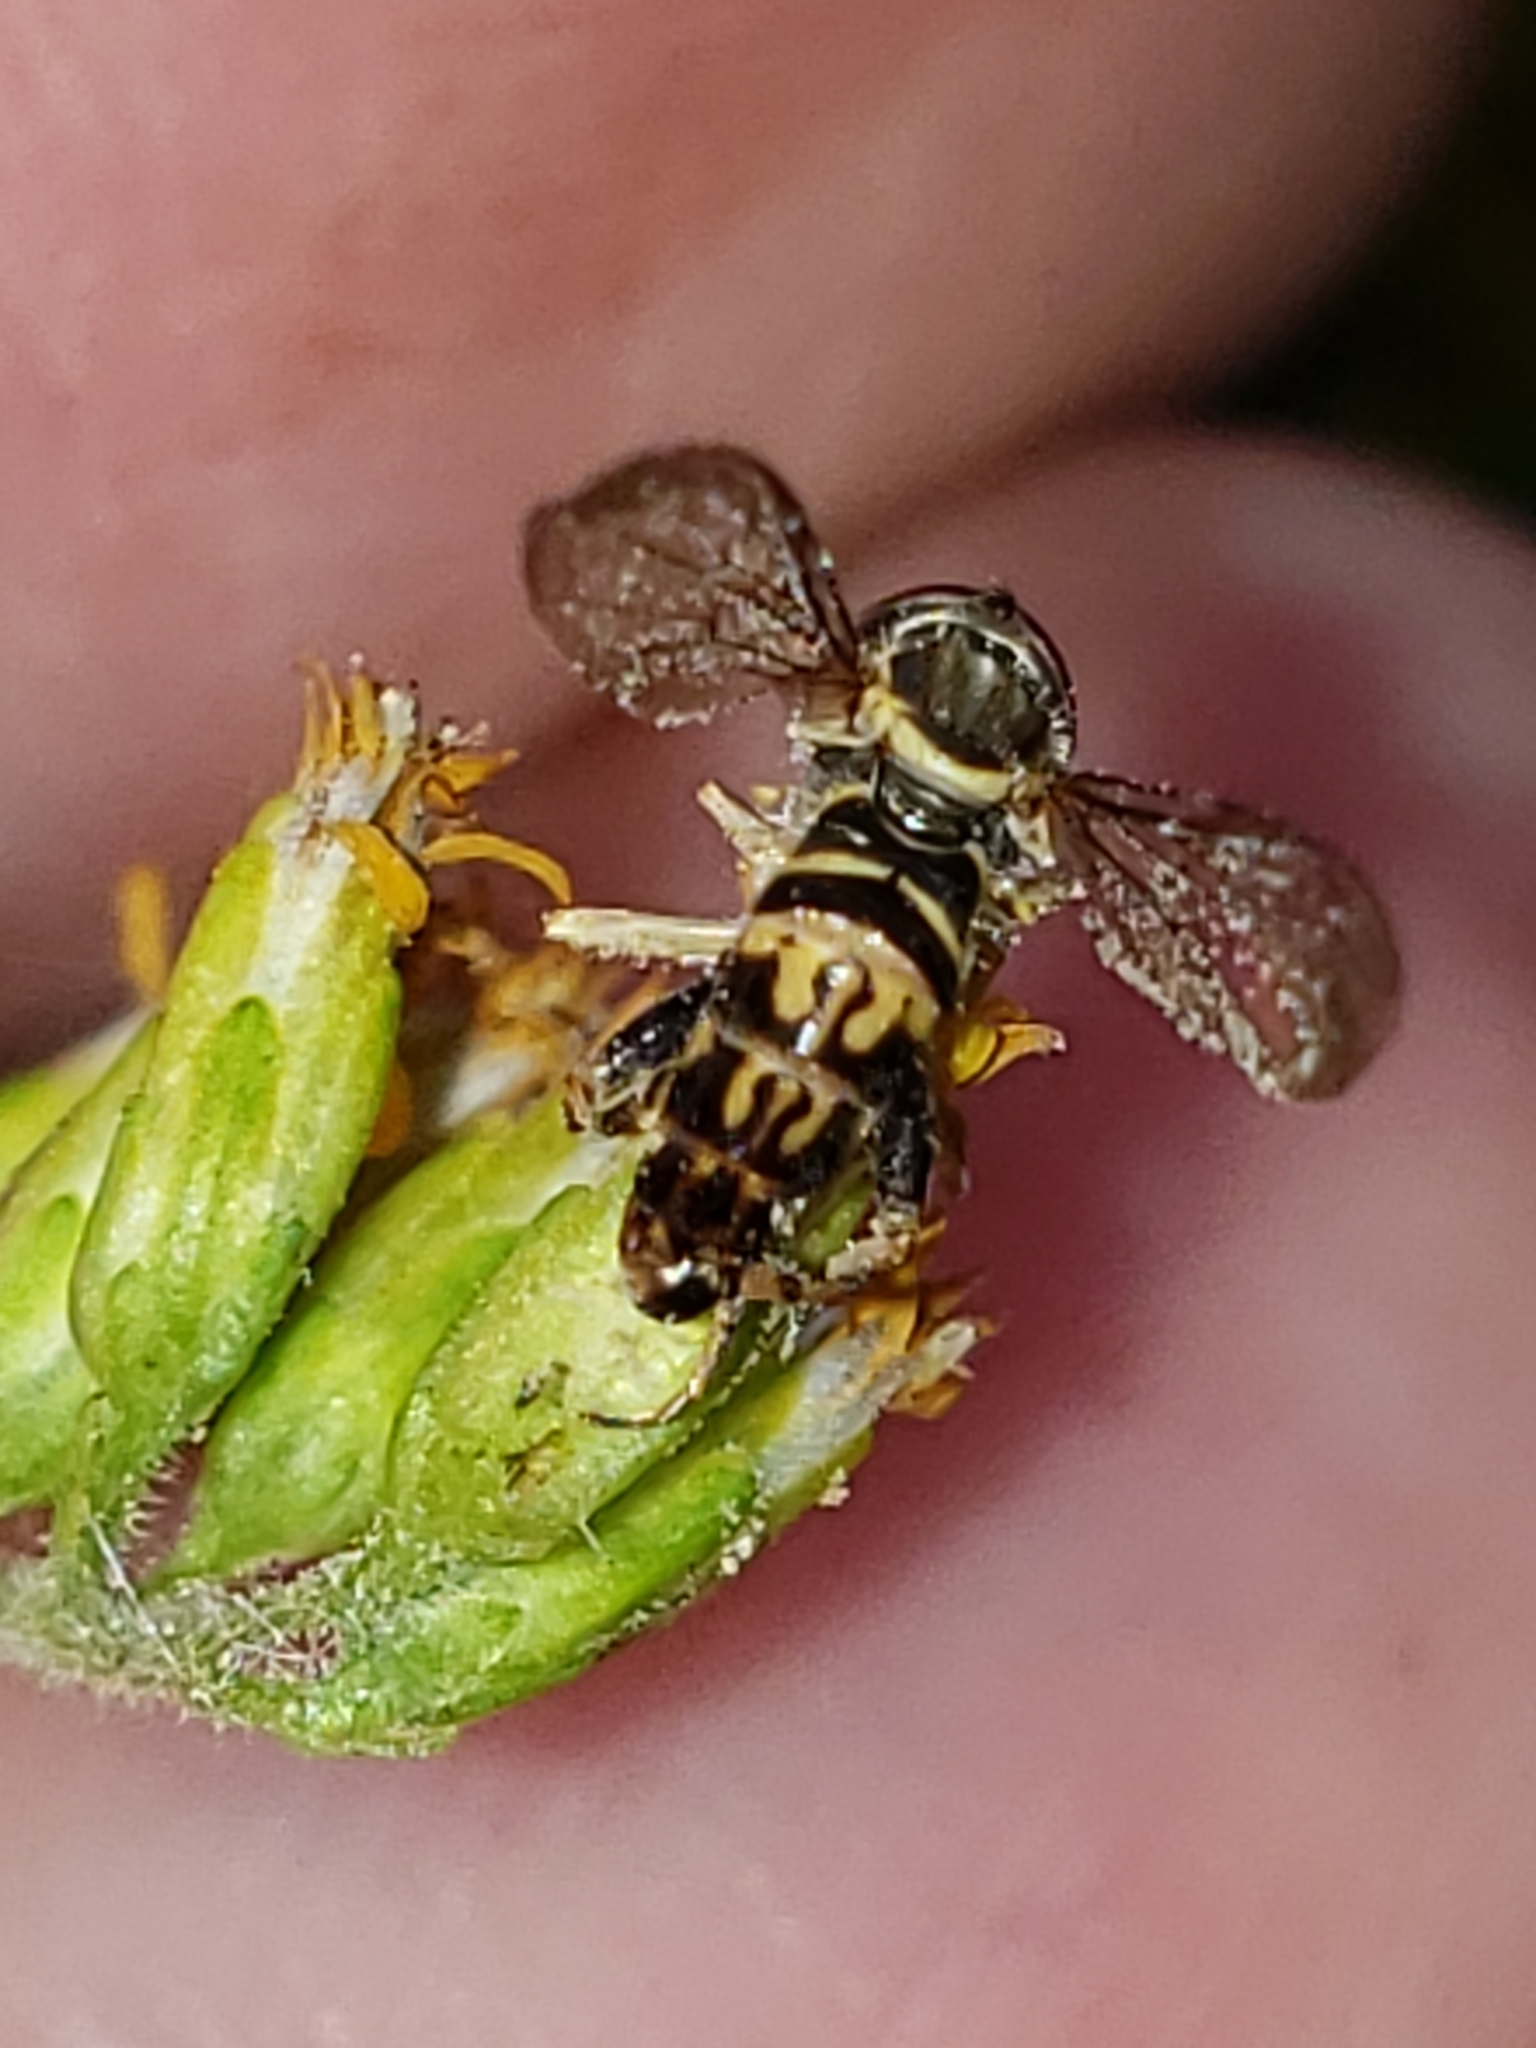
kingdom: Animalia
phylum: Arthropoda
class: Insecta
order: Diptera
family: Syrphidae
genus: Toxomerus
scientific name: Toxomerus geminatus
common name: Eastern calligrapher
